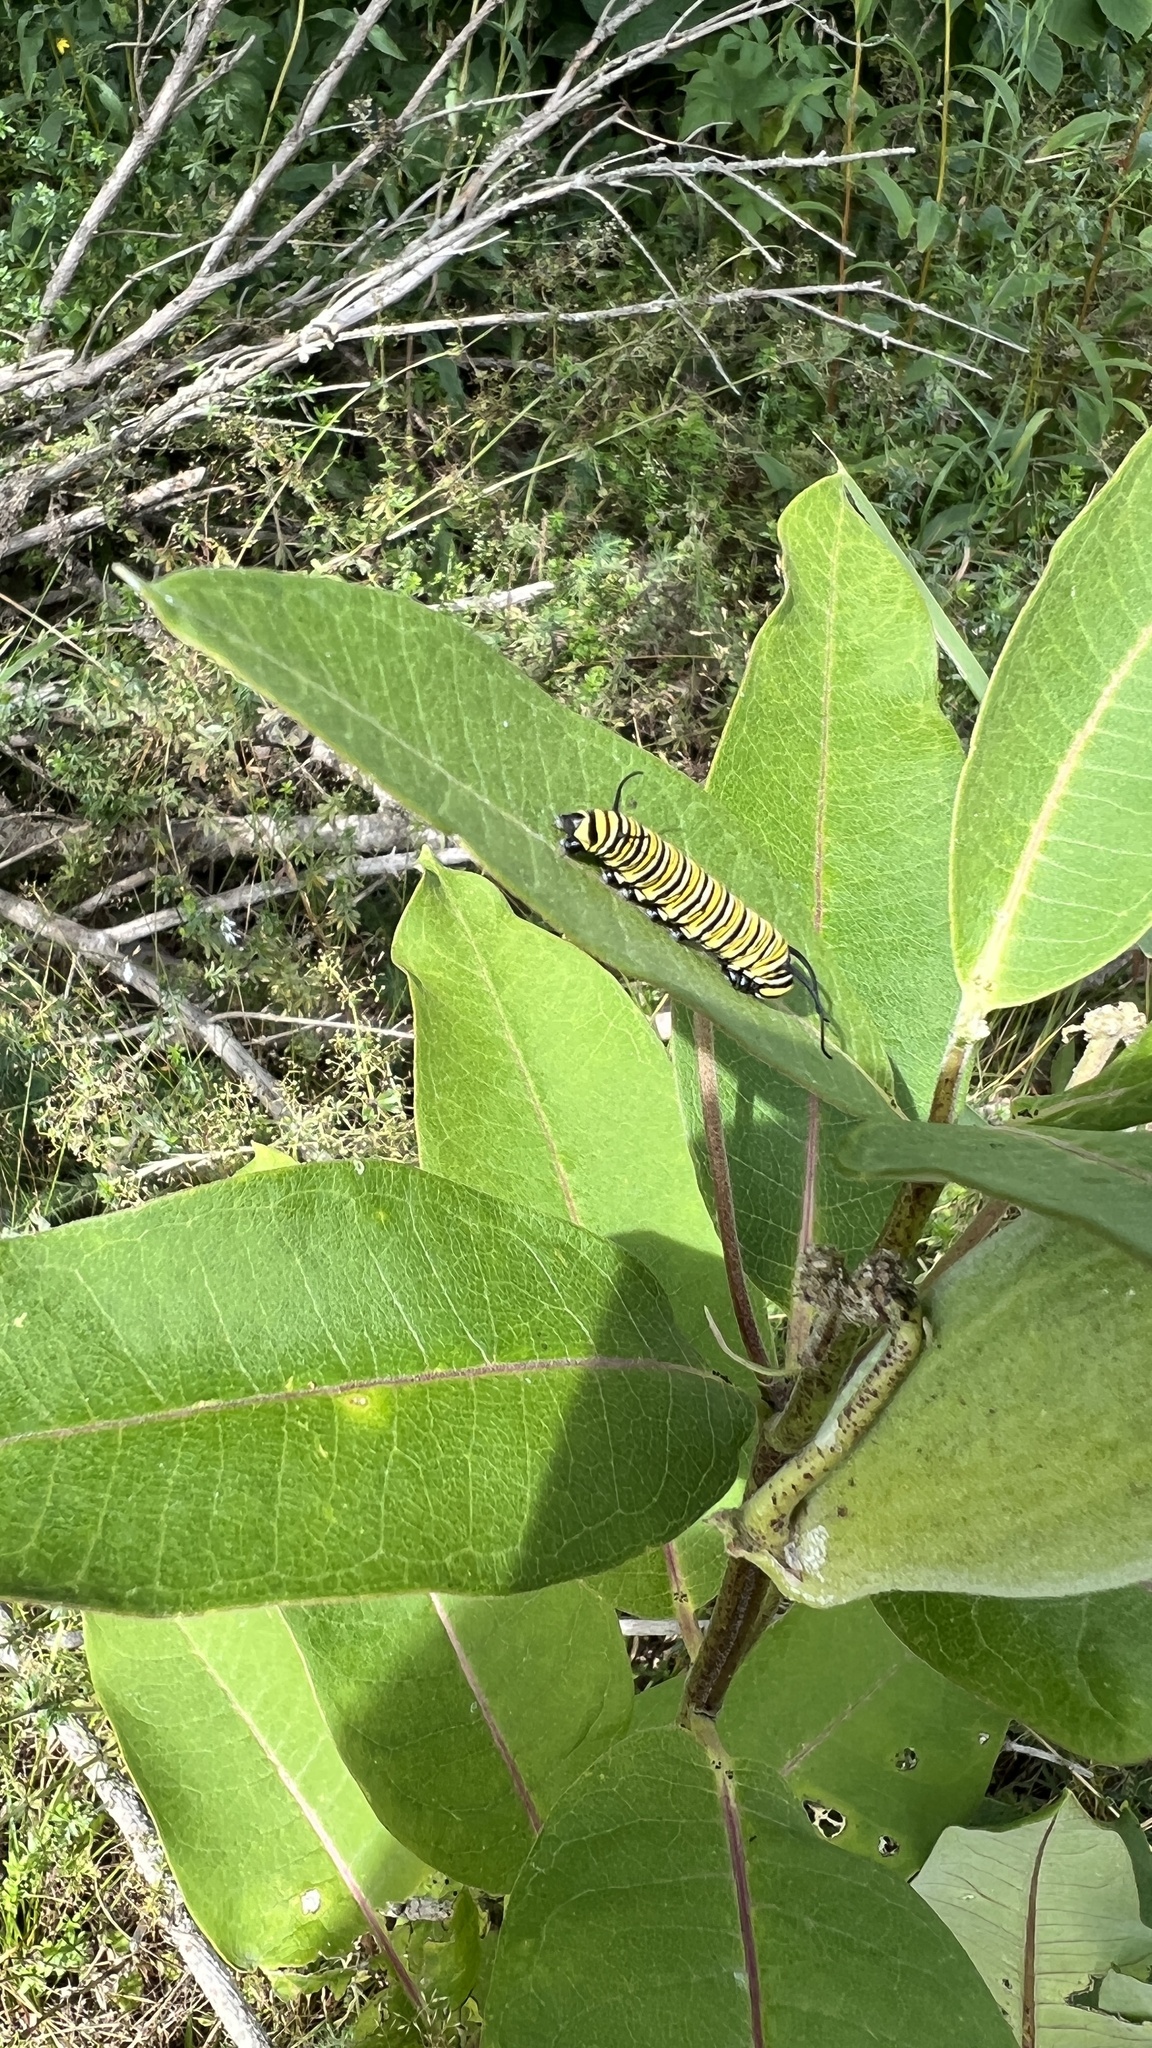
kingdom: Animalia
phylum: Arthropoda
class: Insecta
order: Lepidoptera
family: Nymphalidae
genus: Danaus
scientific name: Danaus plexippus
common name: Monarch
